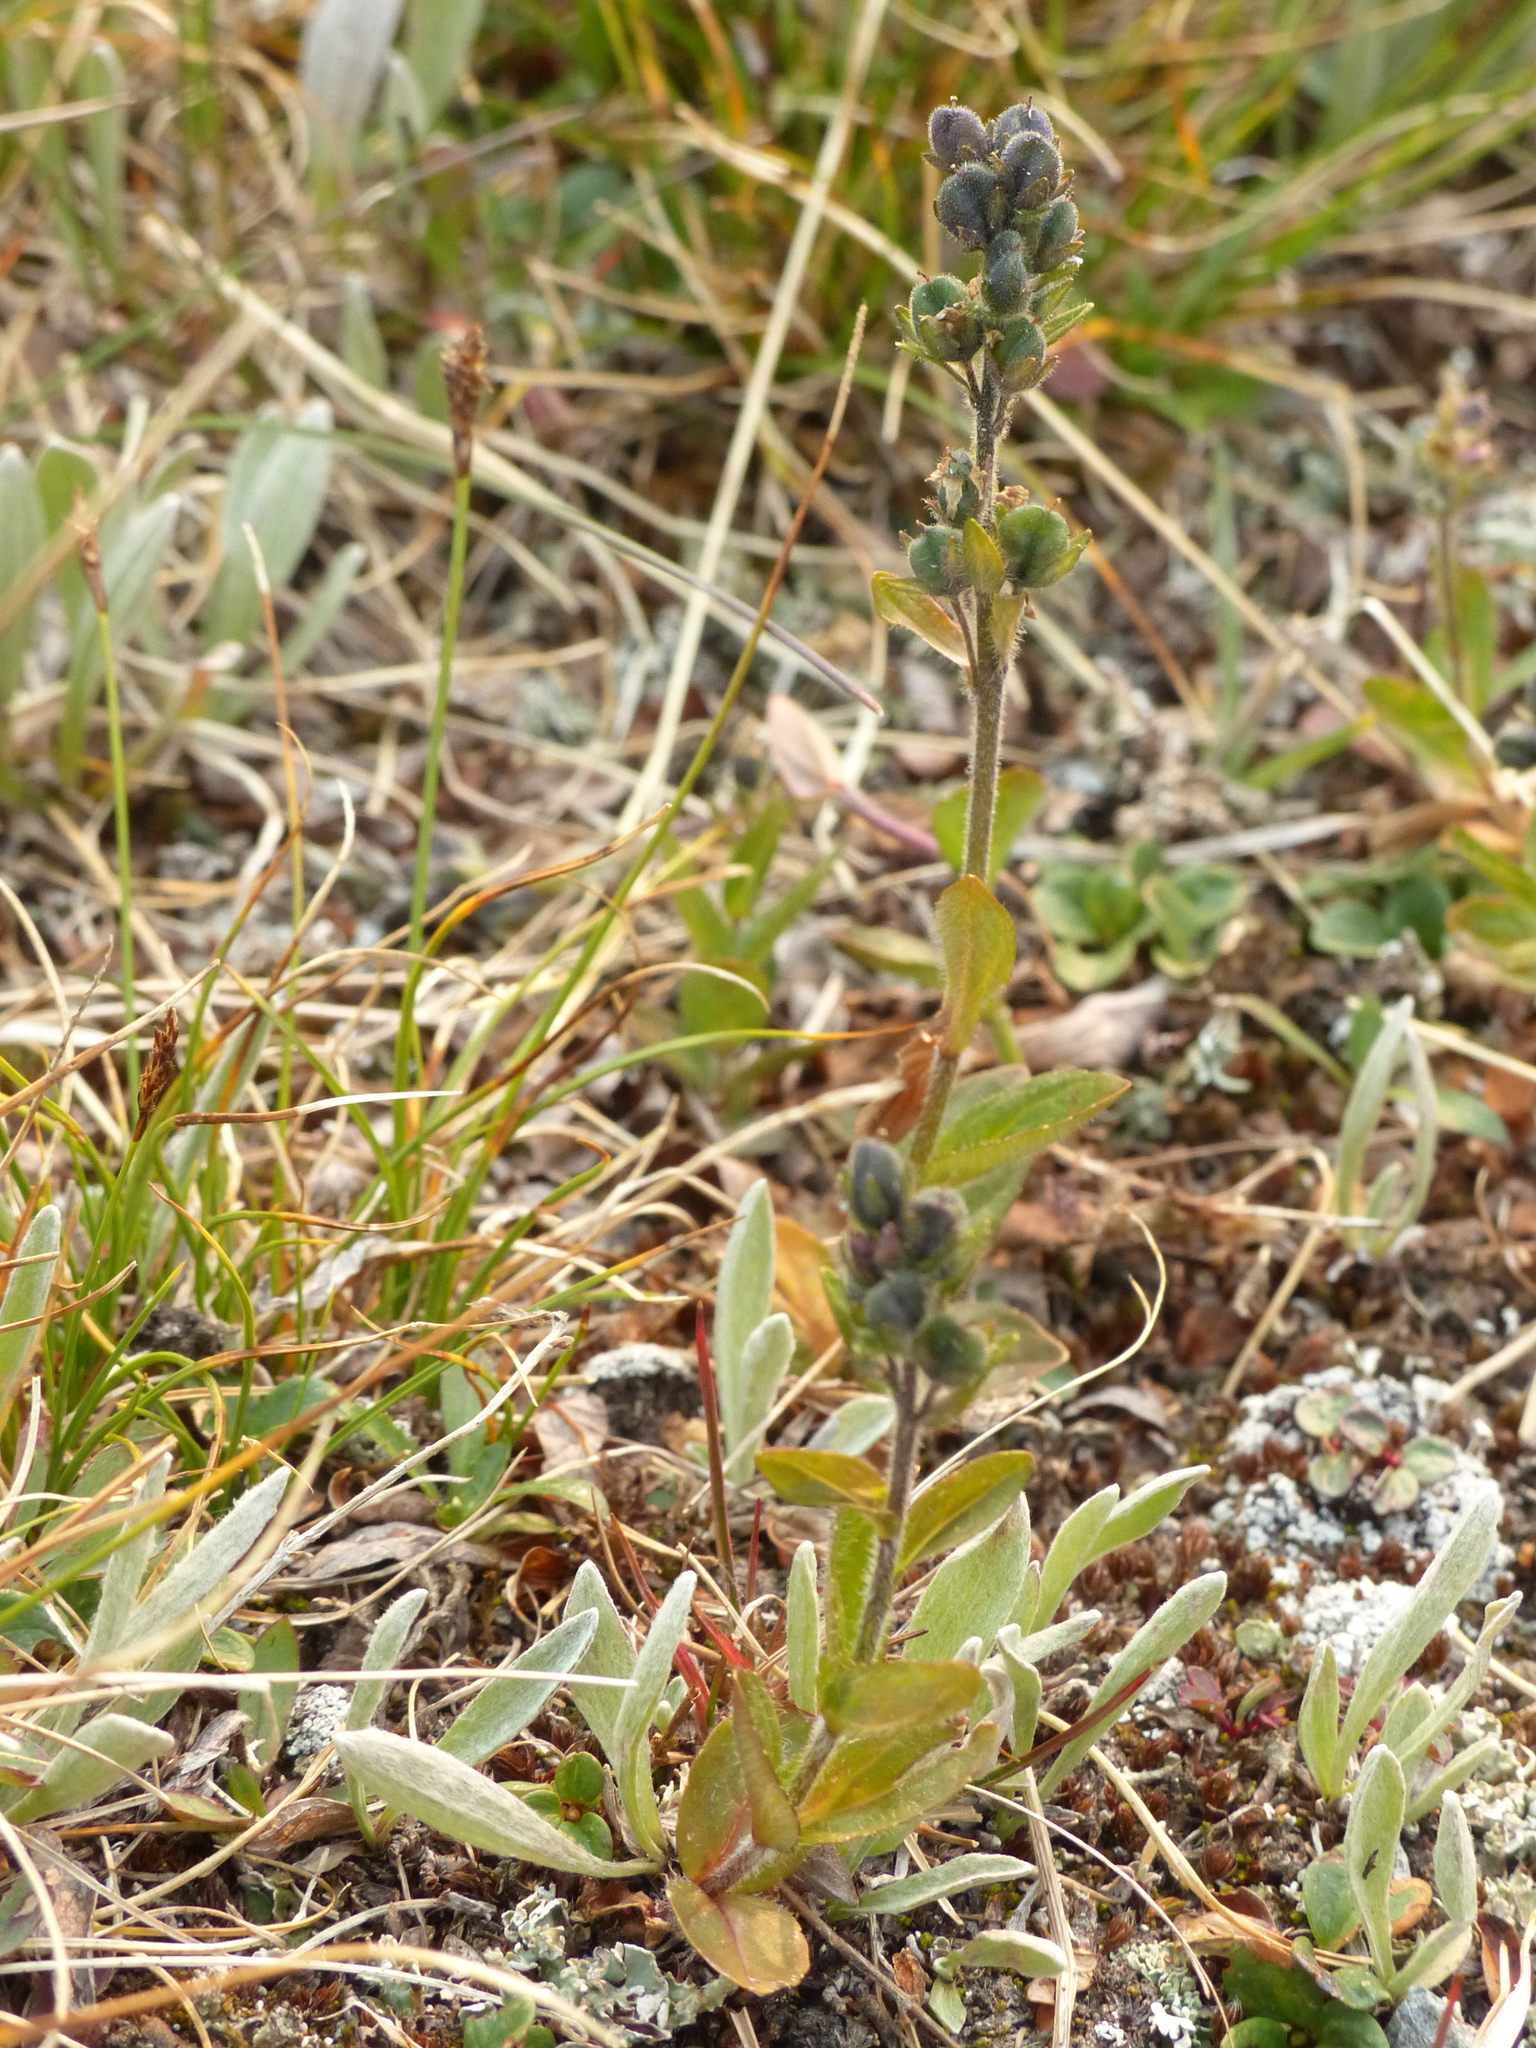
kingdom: Plantae
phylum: Tracheophyta
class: Magnoliopsida
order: Lamiales
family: Plantaginaceae
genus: Veronica
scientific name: Veronica wormskjoldii
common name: American alpine speedwell
